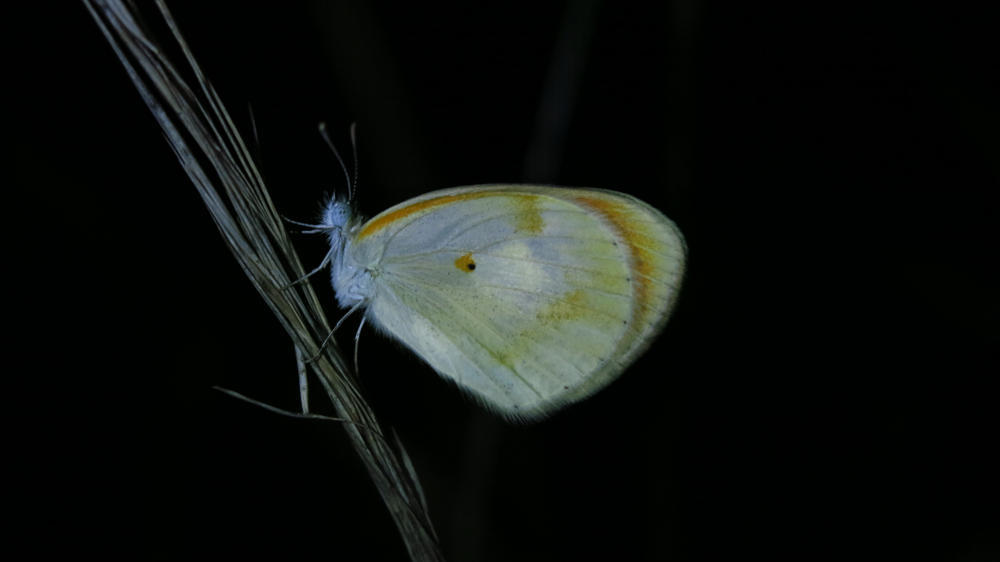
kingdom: Animalia
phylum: Arthropoda
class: Insecta
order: Lepidoptera
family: Pieridae
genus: Colotis
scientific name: Colotis evagore
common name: Desert orange-tip
